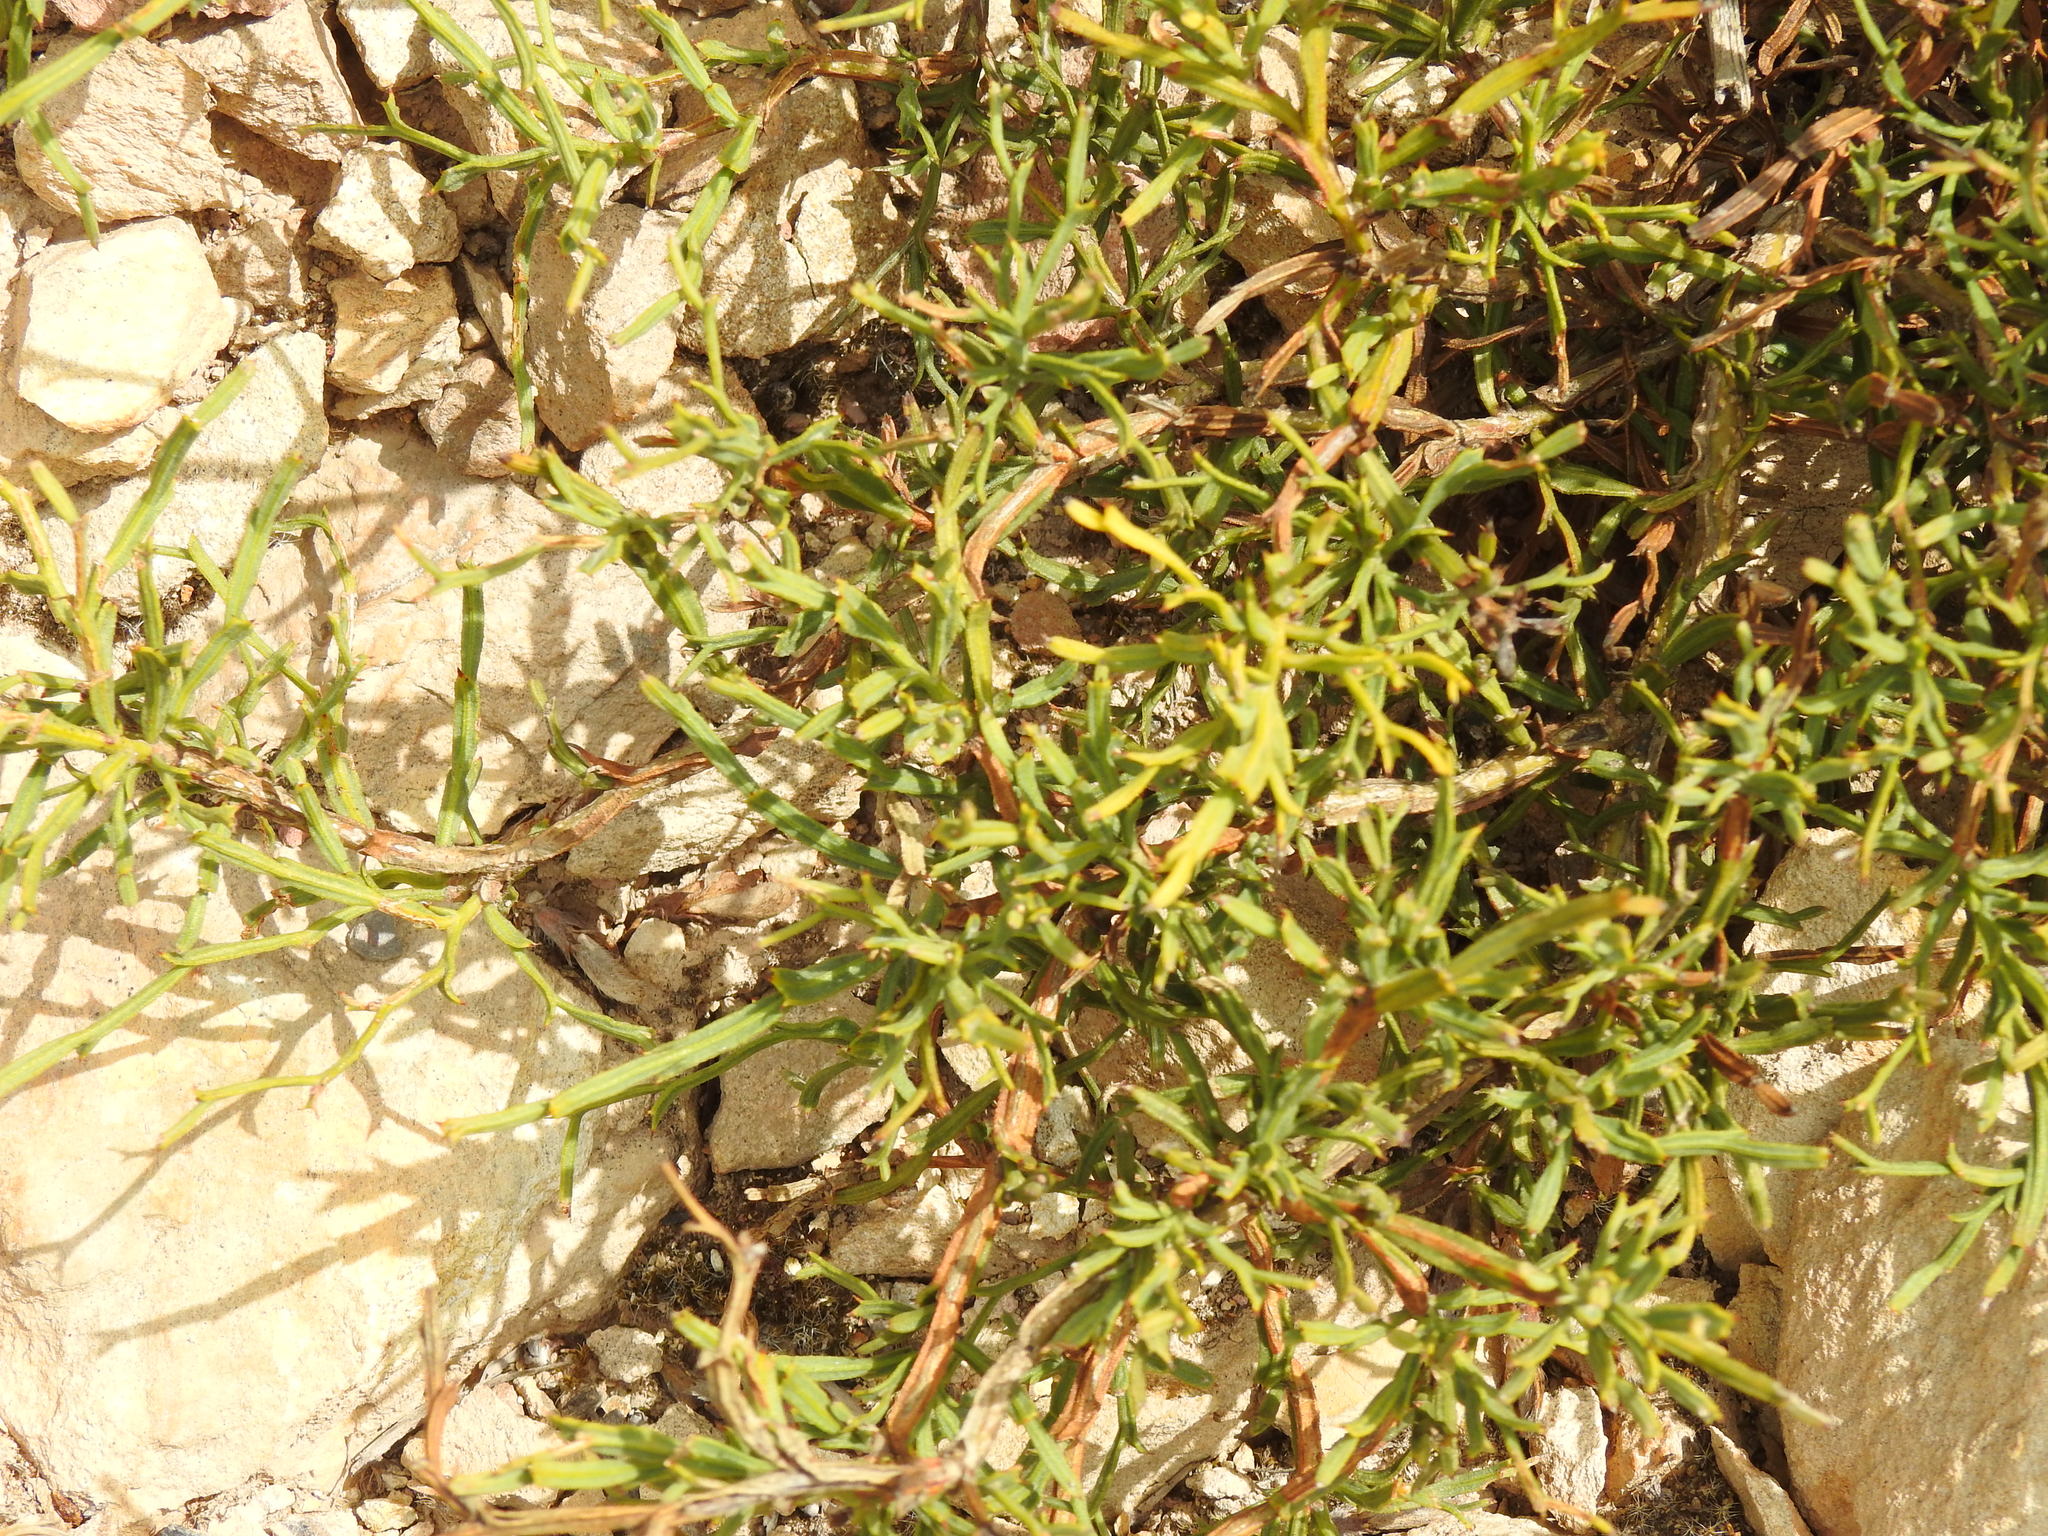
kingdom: Plantae
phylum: Tracheophyta
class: Magnoliopsida
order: Fabales
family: Fabaceae
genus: Genista
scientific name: Genista tridentata
